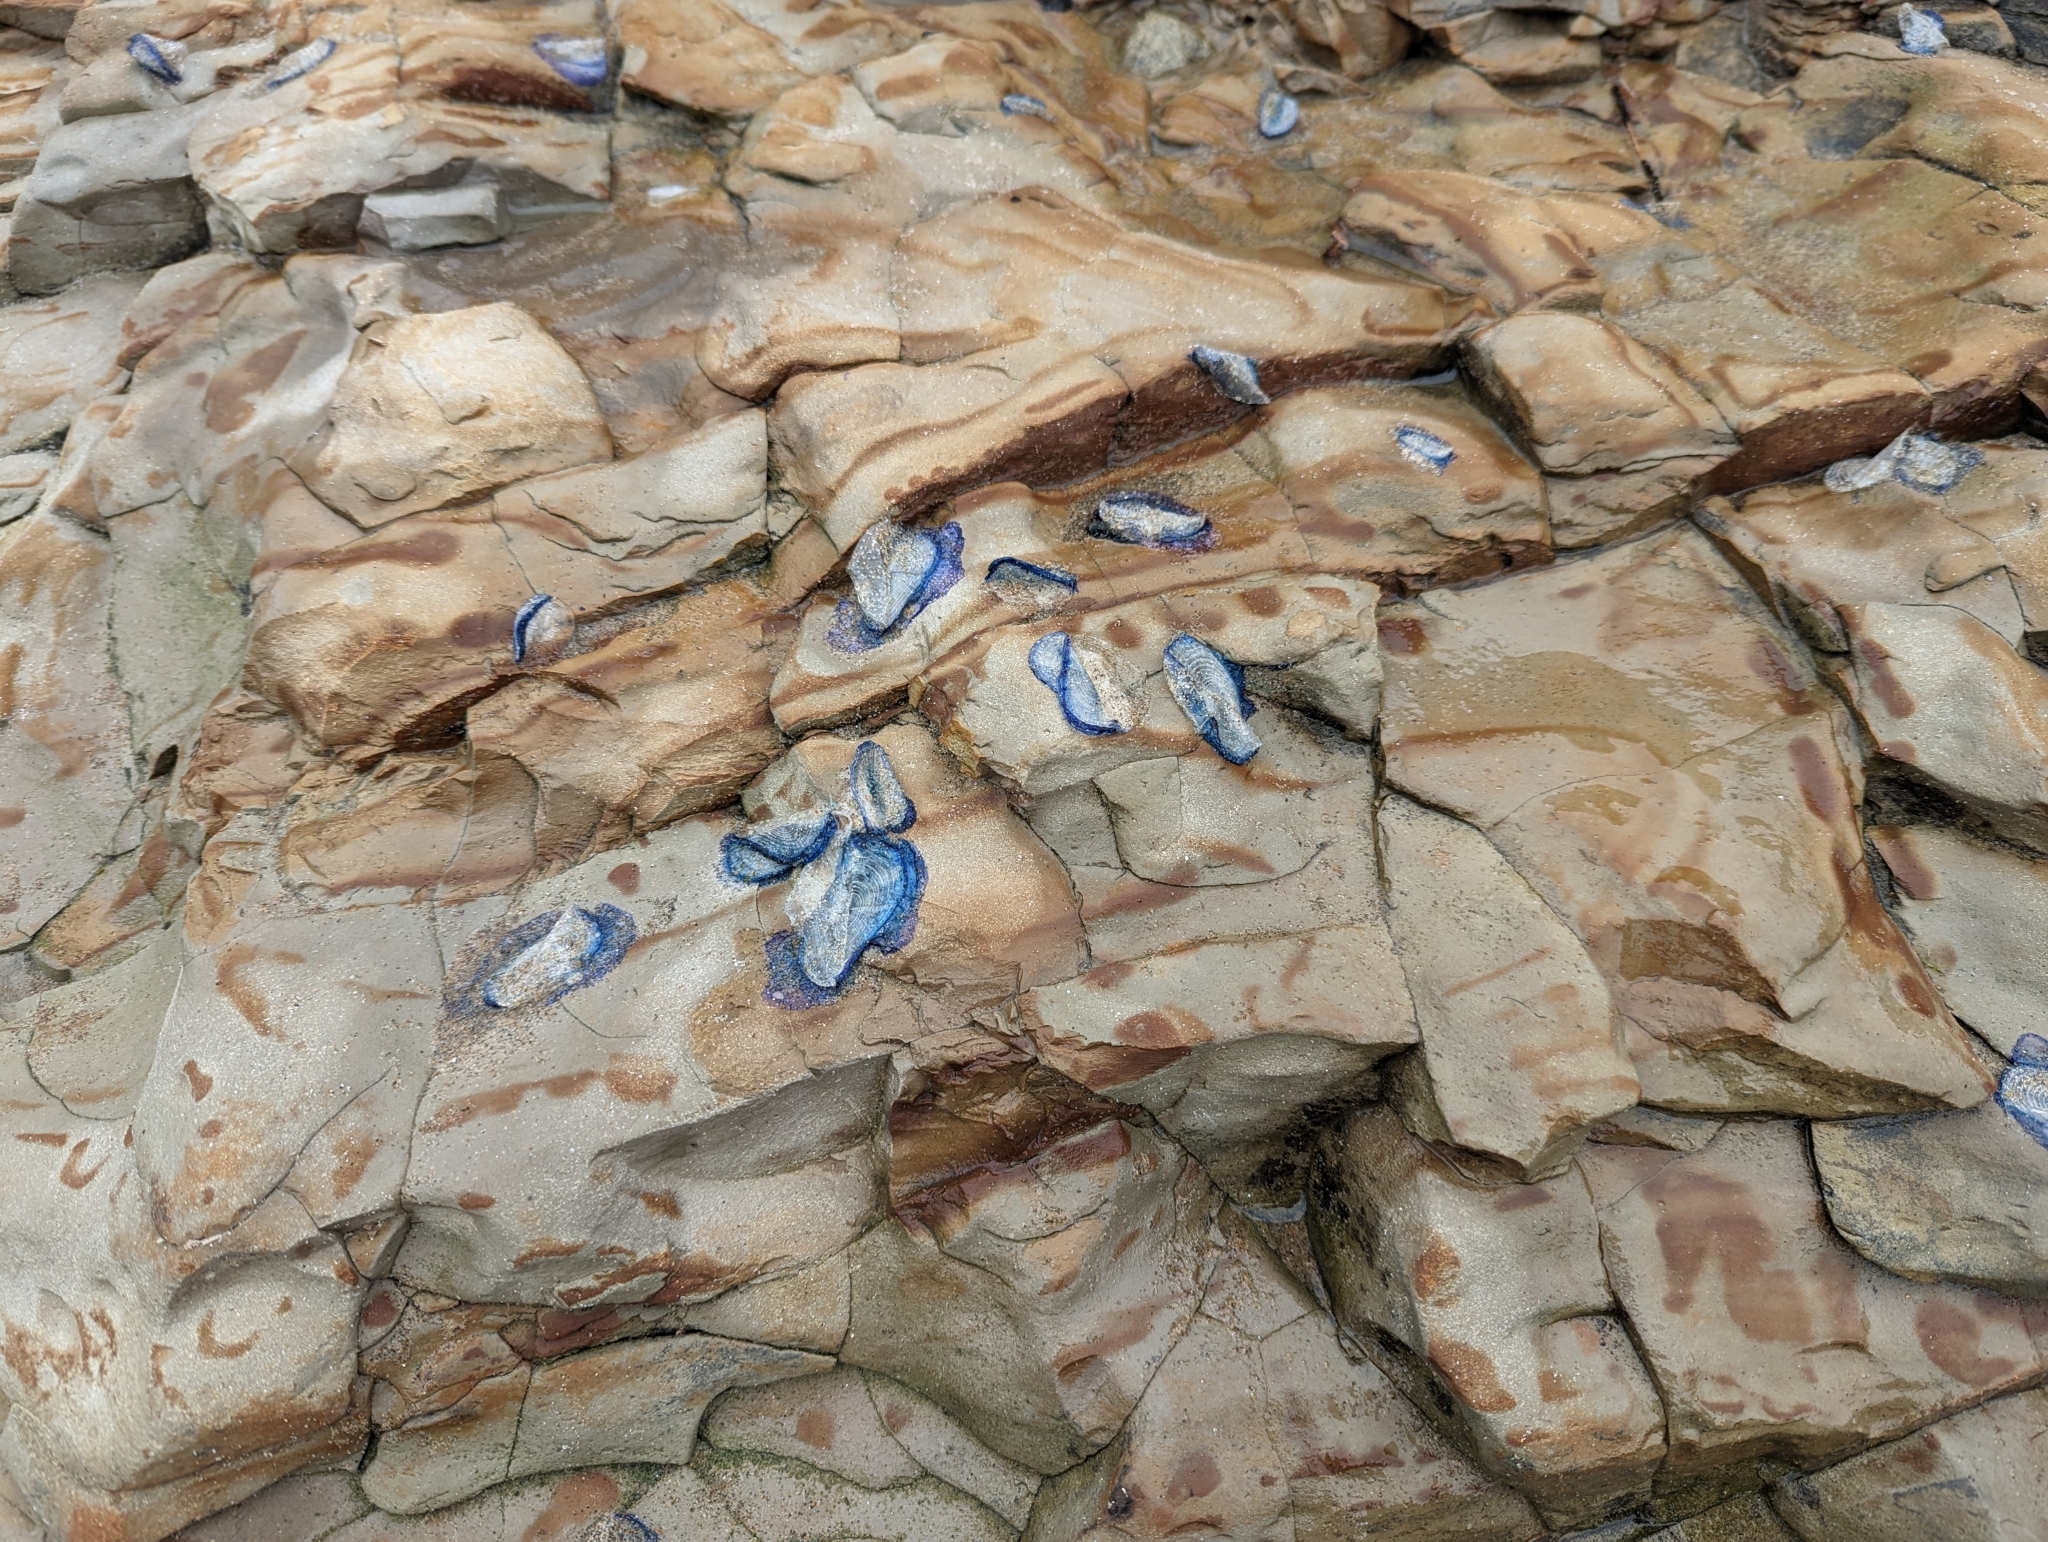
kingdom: Animalia
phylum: Cnidaria
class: Hydrozoa
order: Anthoathecata
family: Porpitidae
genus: Velella
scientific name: Velella velella
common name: By-the-wind-sailor
